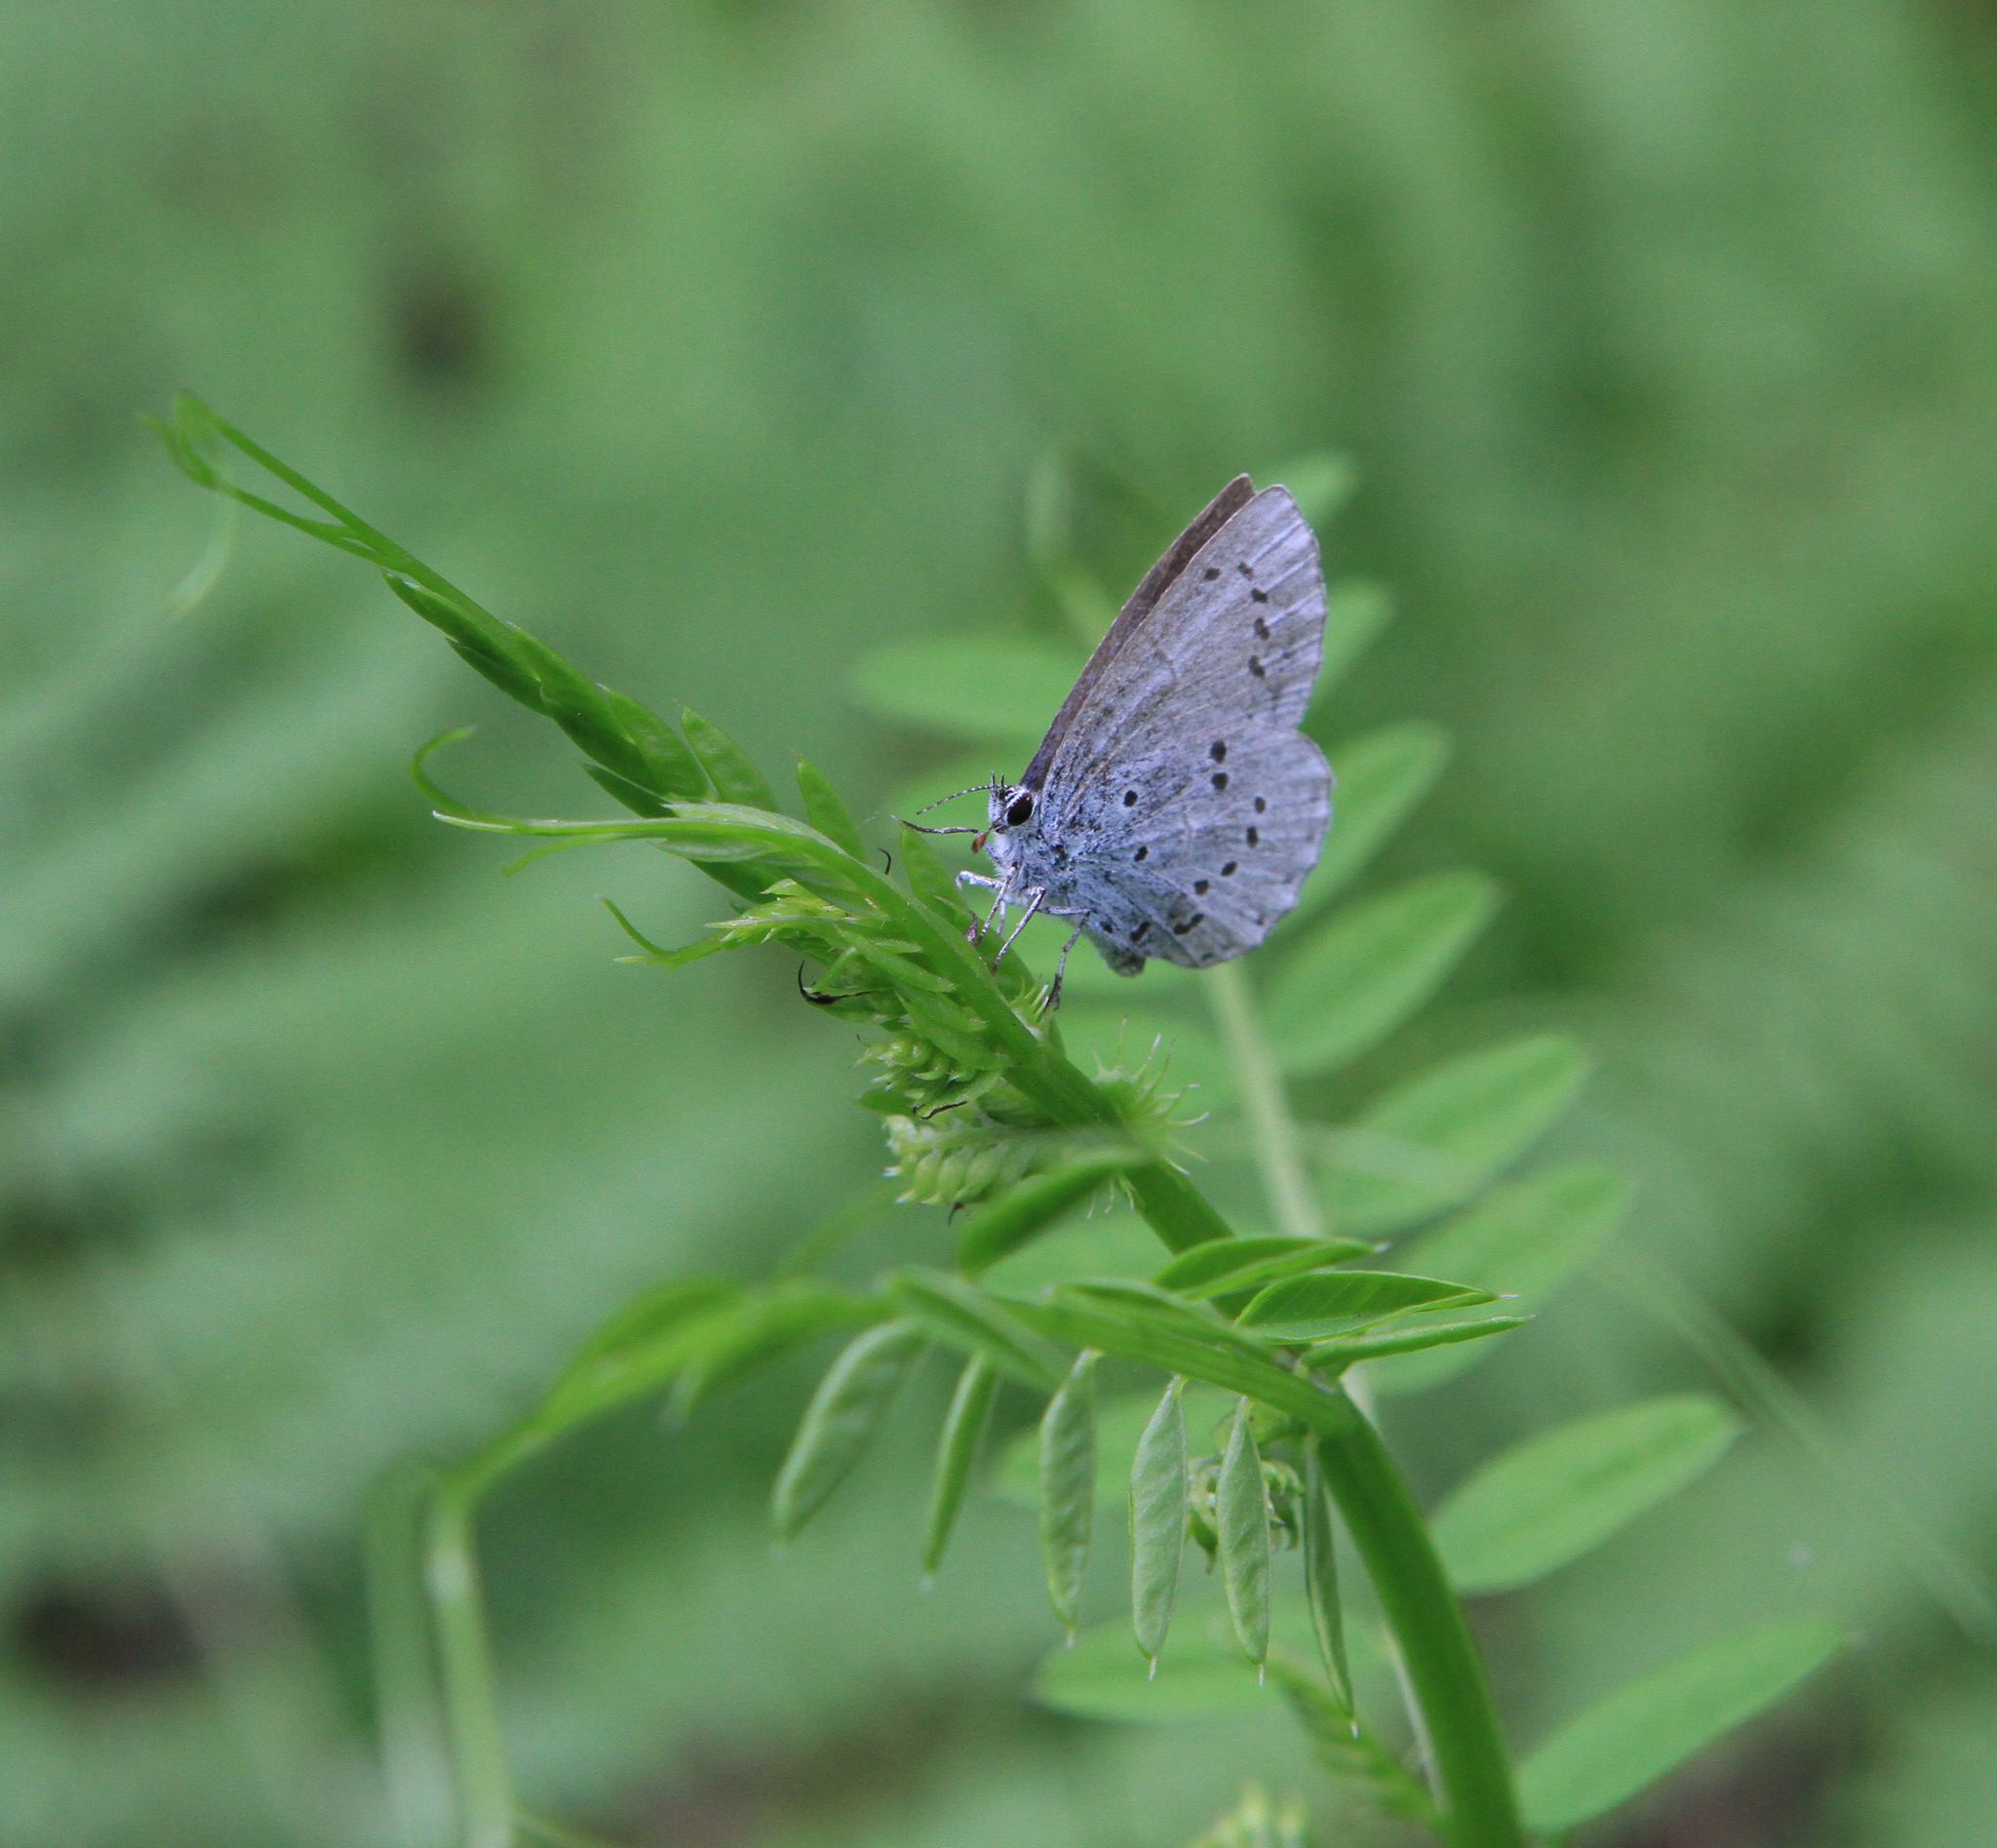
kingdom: Animalia
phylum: Arthropoda
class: Insecta
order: Lepidoptera
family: Lycaenidae
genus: Celastrina
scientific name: Celastrina argiolus
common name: Holly blue
